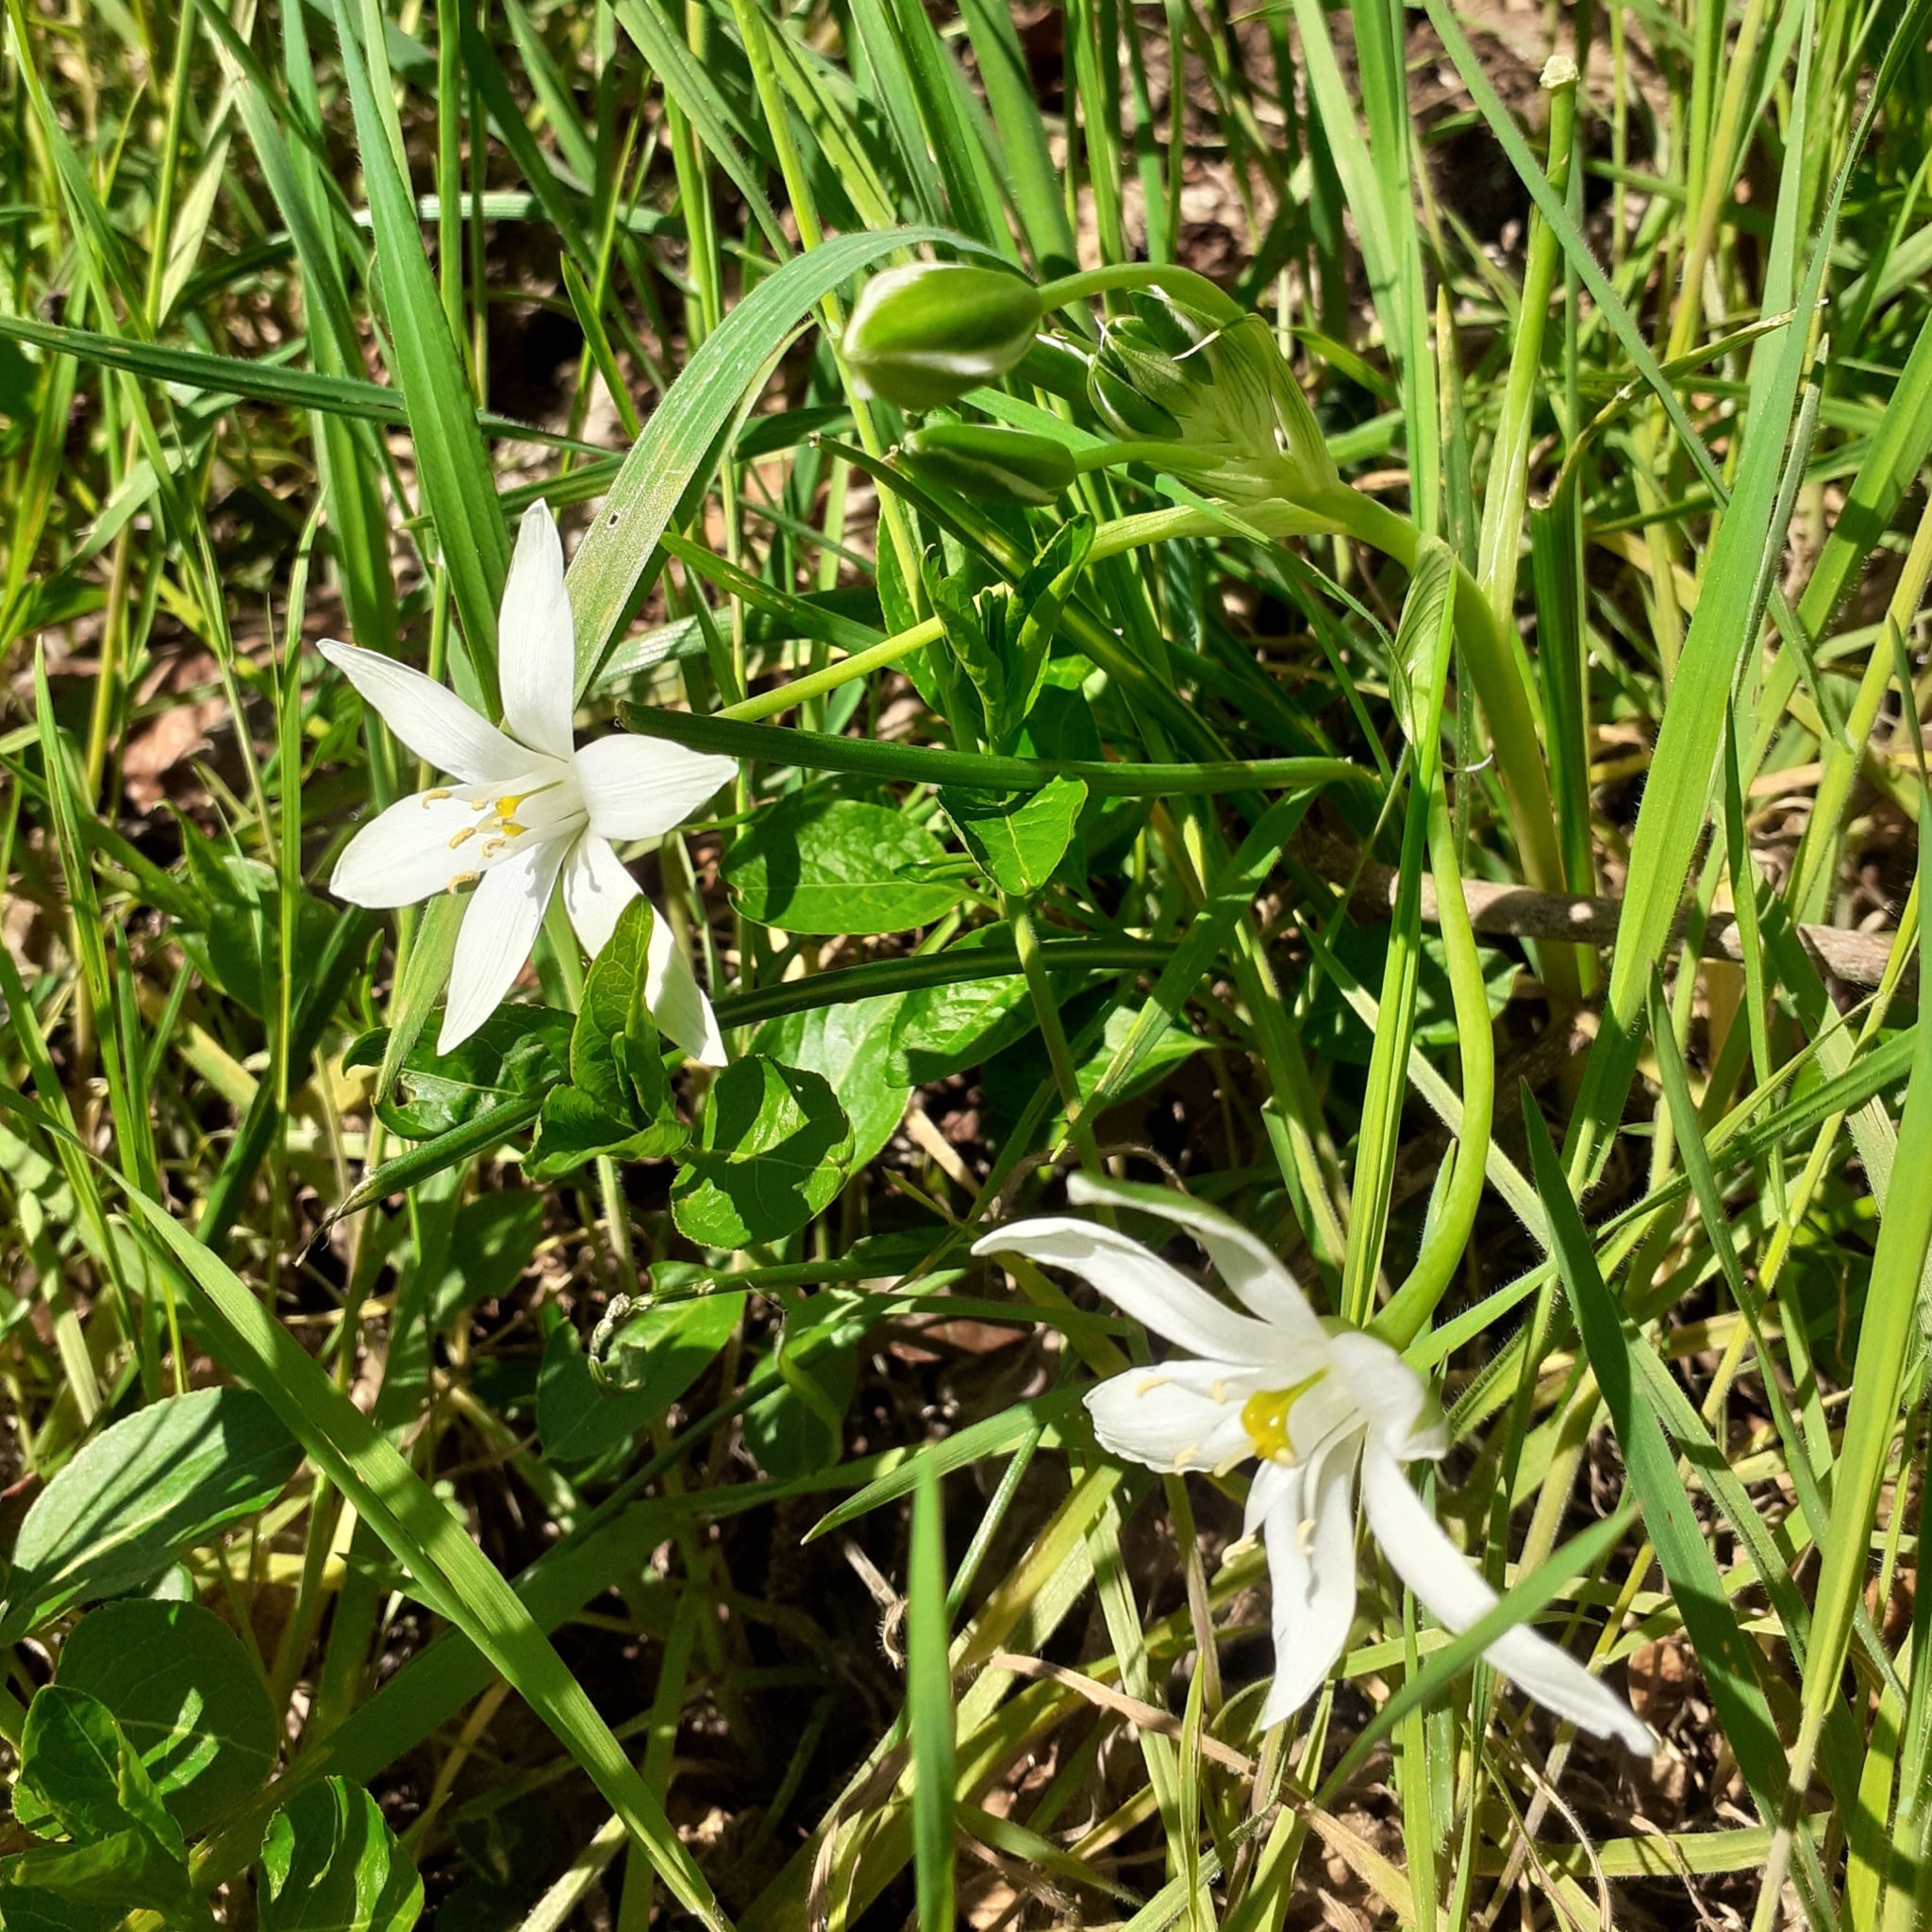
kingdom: Plantae
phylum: Tracheophyta
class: Liliopsida
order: Asparagales
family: Asparagaceae
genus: Ornithogalum
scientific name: Ornithogalum umbellatum
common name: Garden star-of-bethlehem
